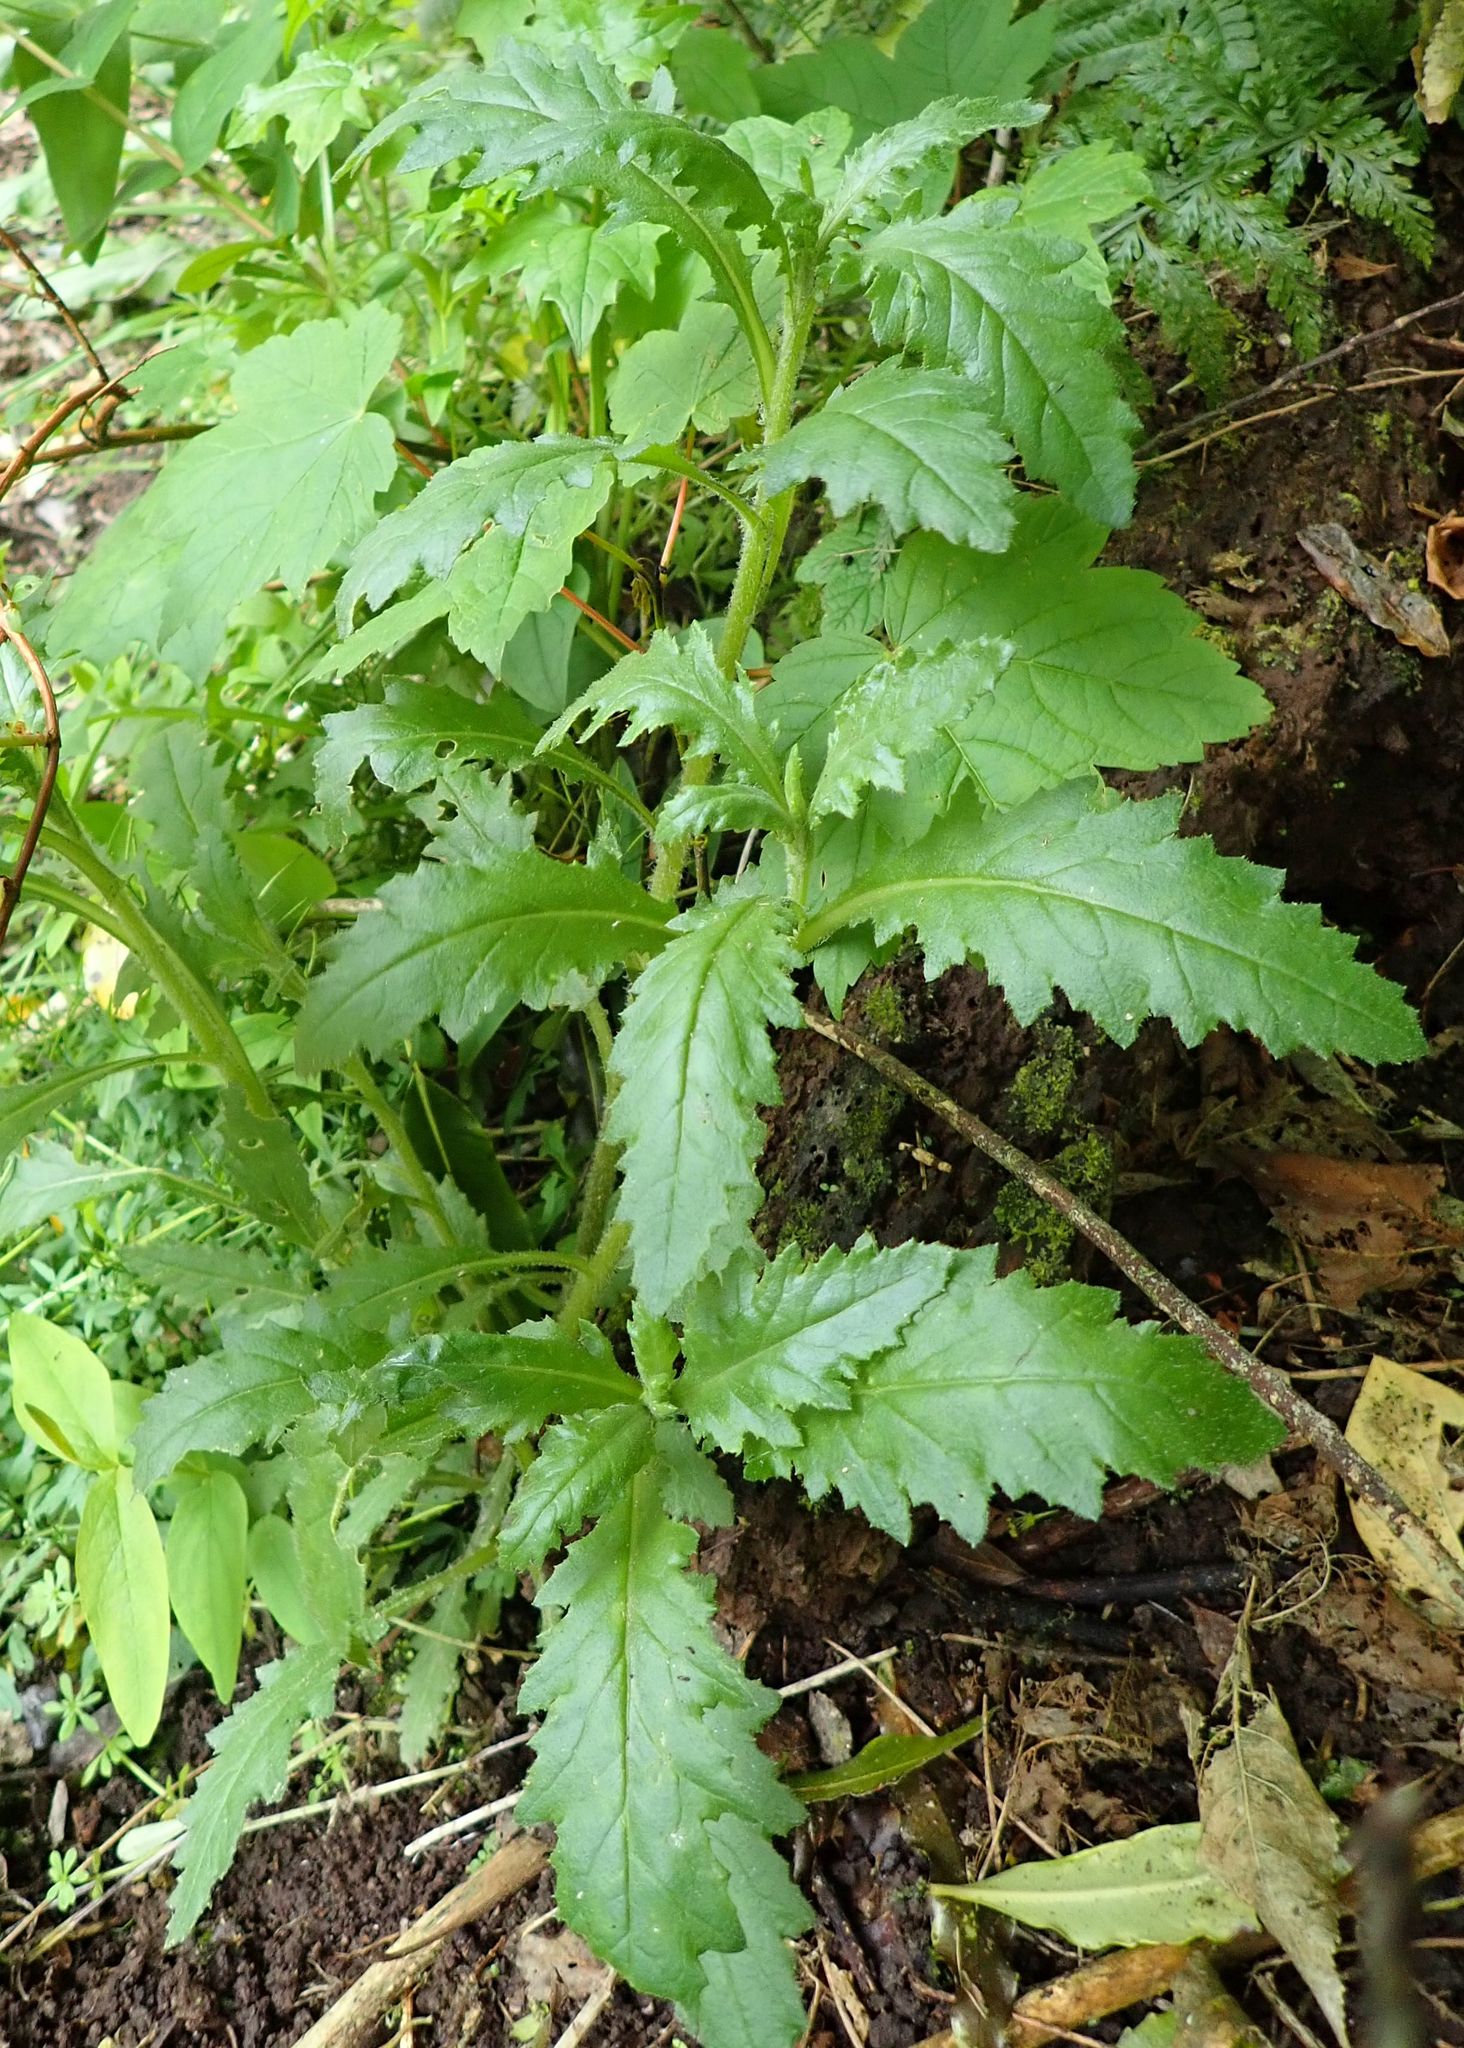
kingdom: Plantae
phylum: Tracheophyta
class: Magnoliopsida
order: Asterales
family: Asteraceae
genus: Senecio
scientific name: Senecio biserratus
